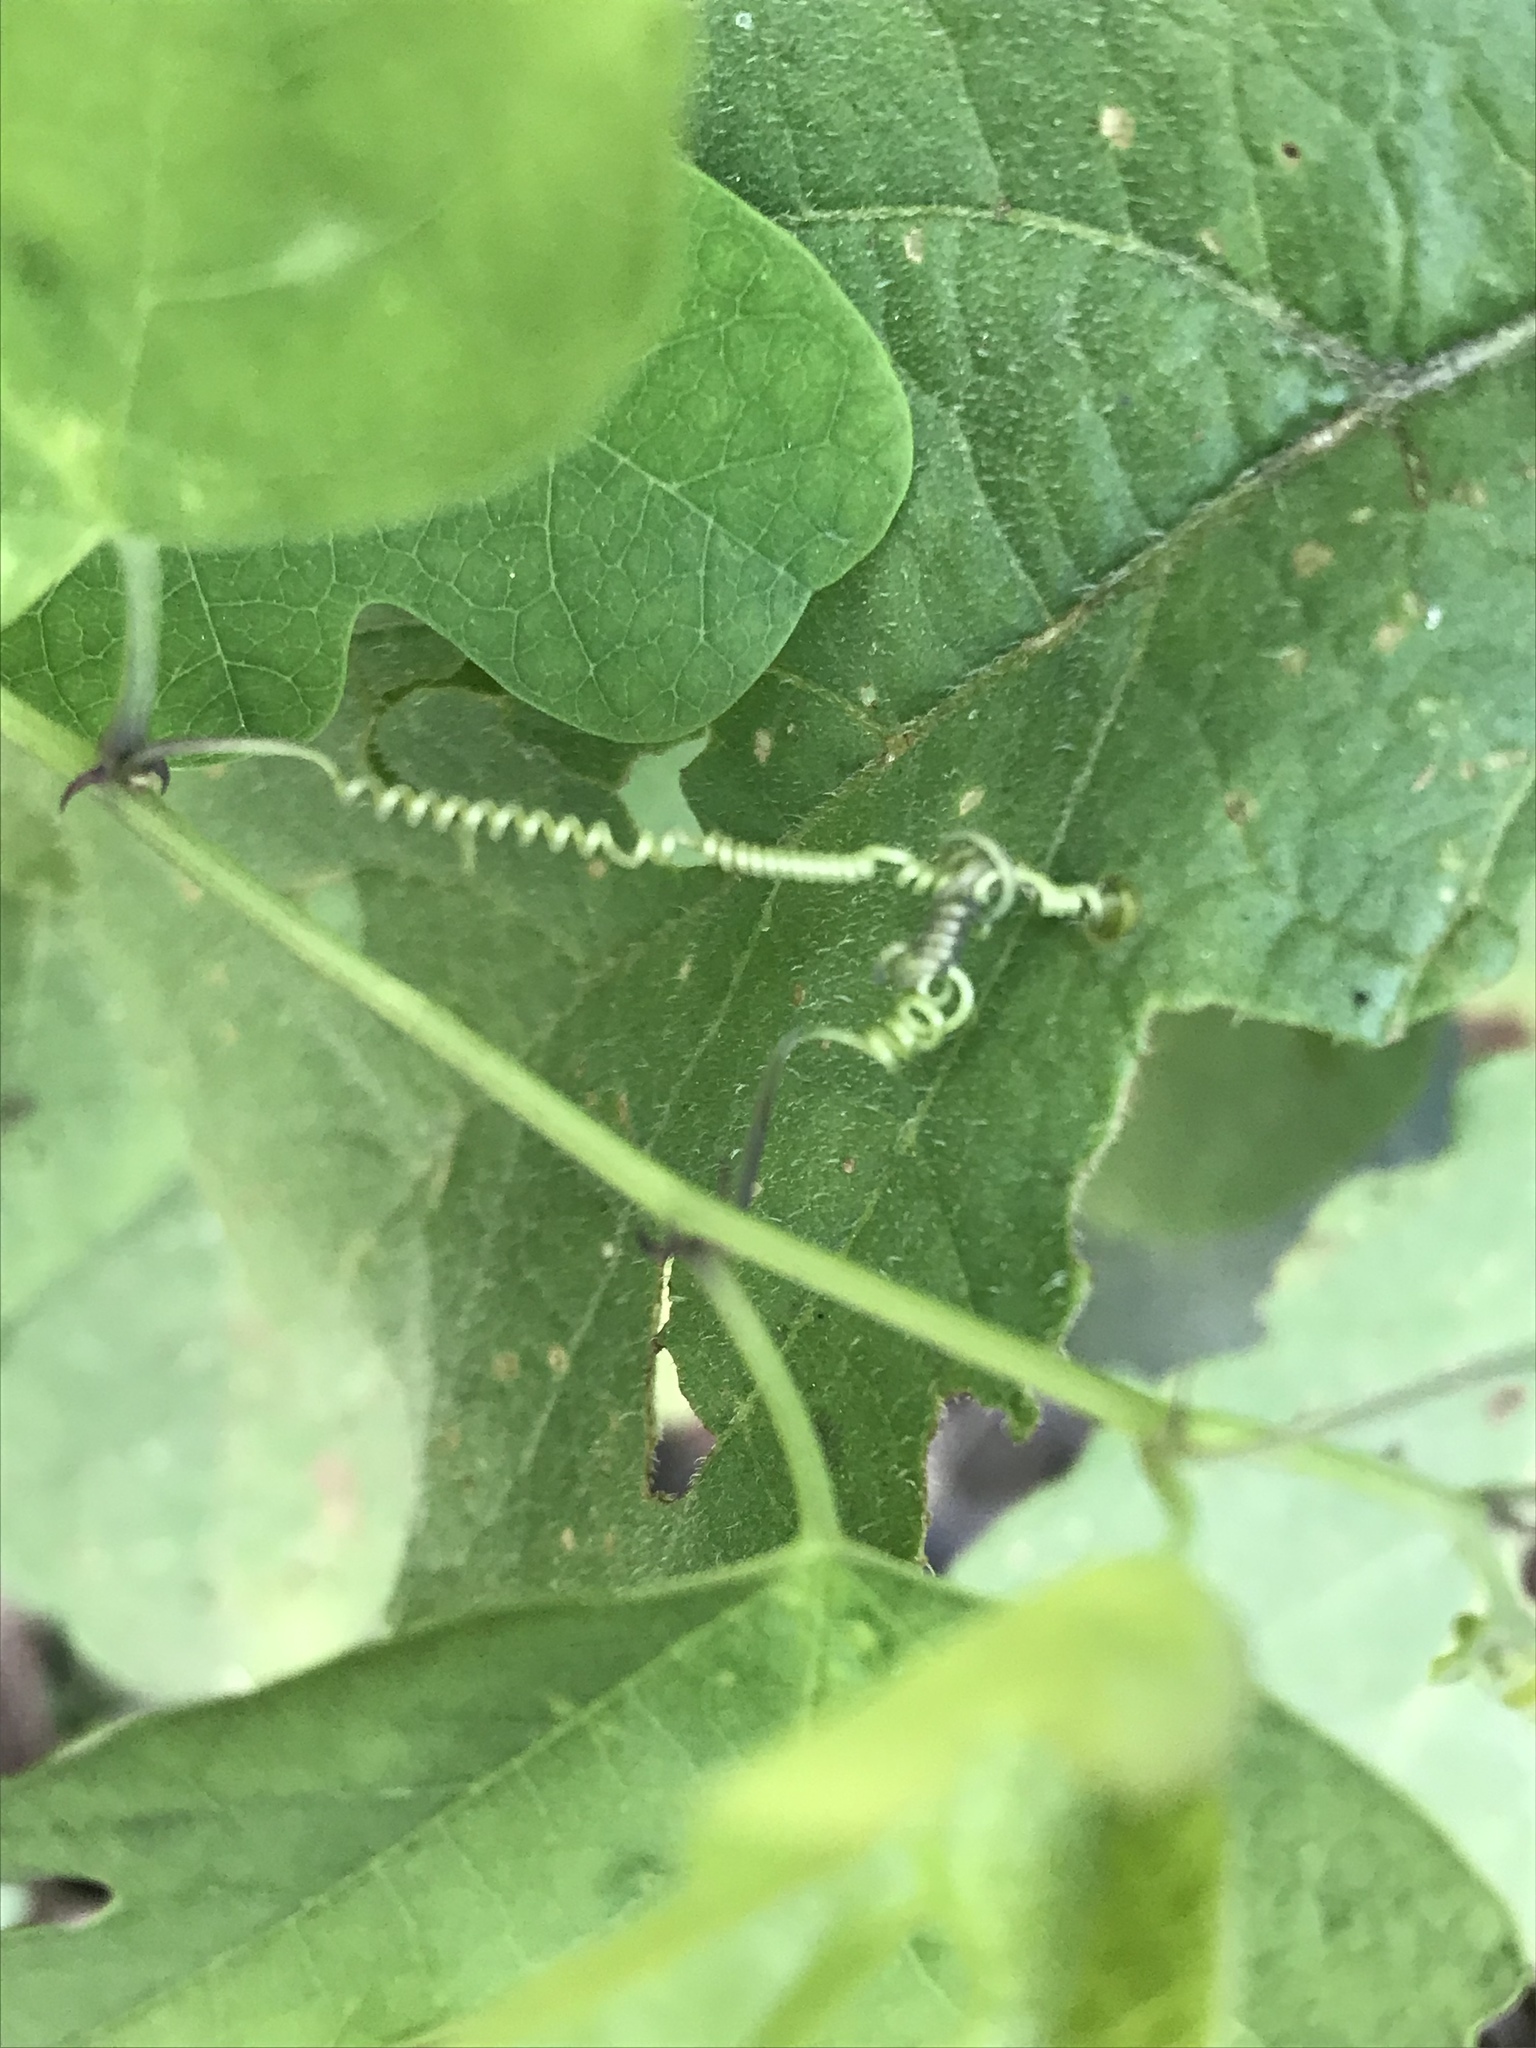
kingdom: Plantae
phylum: Tracheophyta
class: Magnoliopsida
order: Malpighiales
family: Passifloraceae
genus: Passiflora
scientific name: Passiflora affinis
